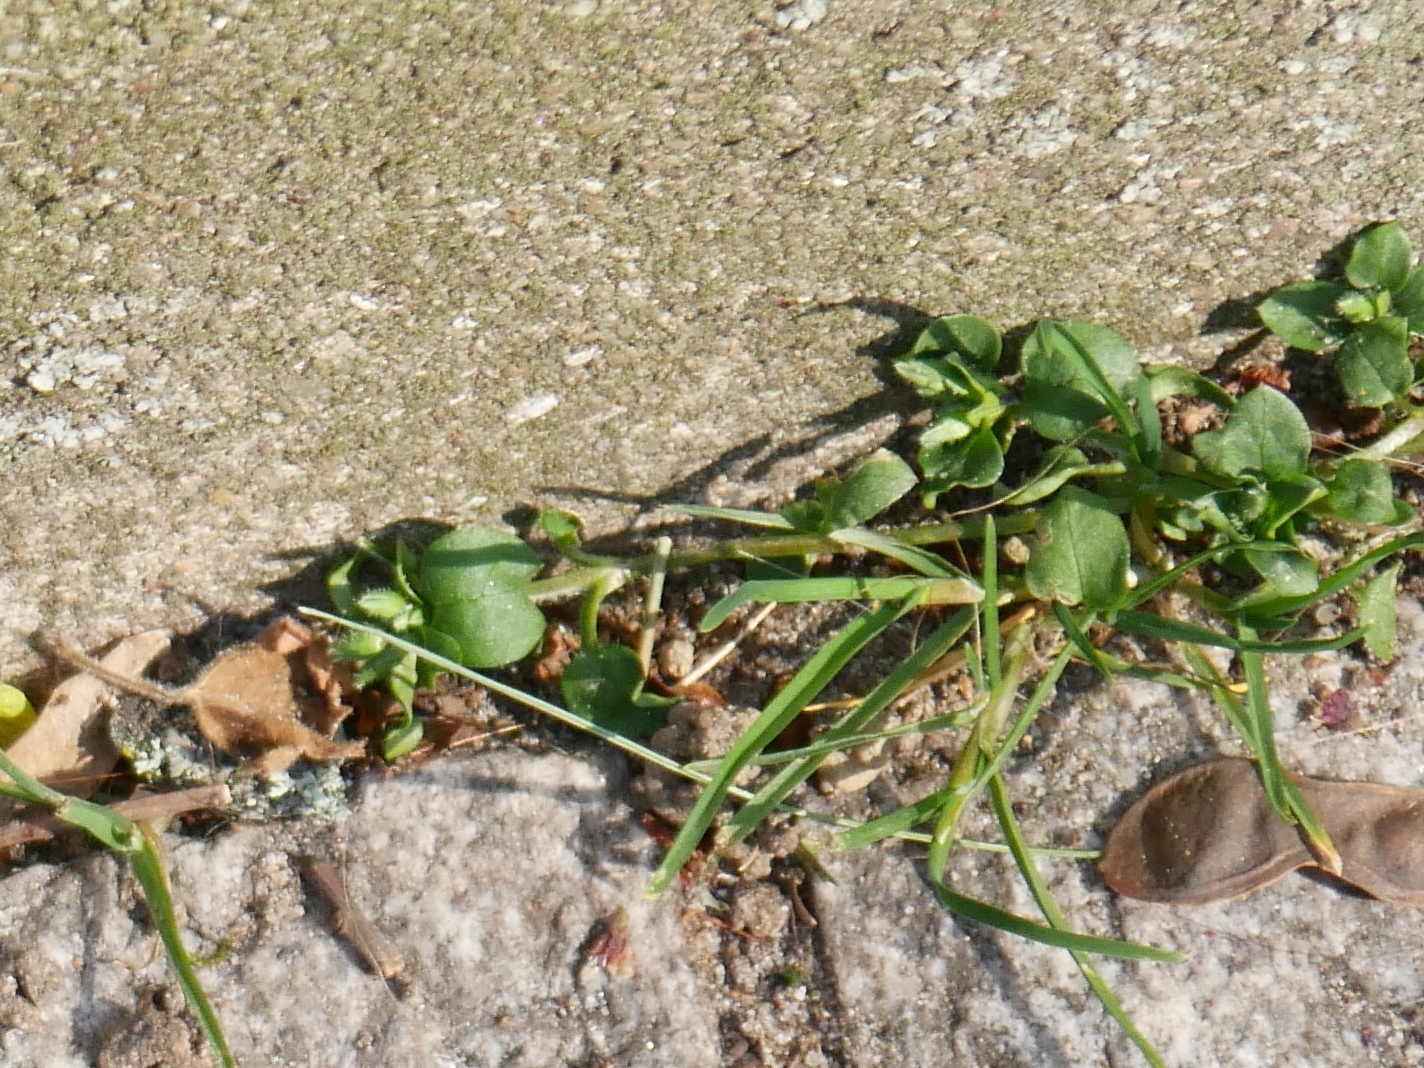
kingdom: Plantae
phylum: Tracheophyta
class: Magnoliopsida
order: Caryophyllales
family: Caryophyllaceae
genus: Stellaria
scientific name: Stellaria media
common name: Common chickweed
